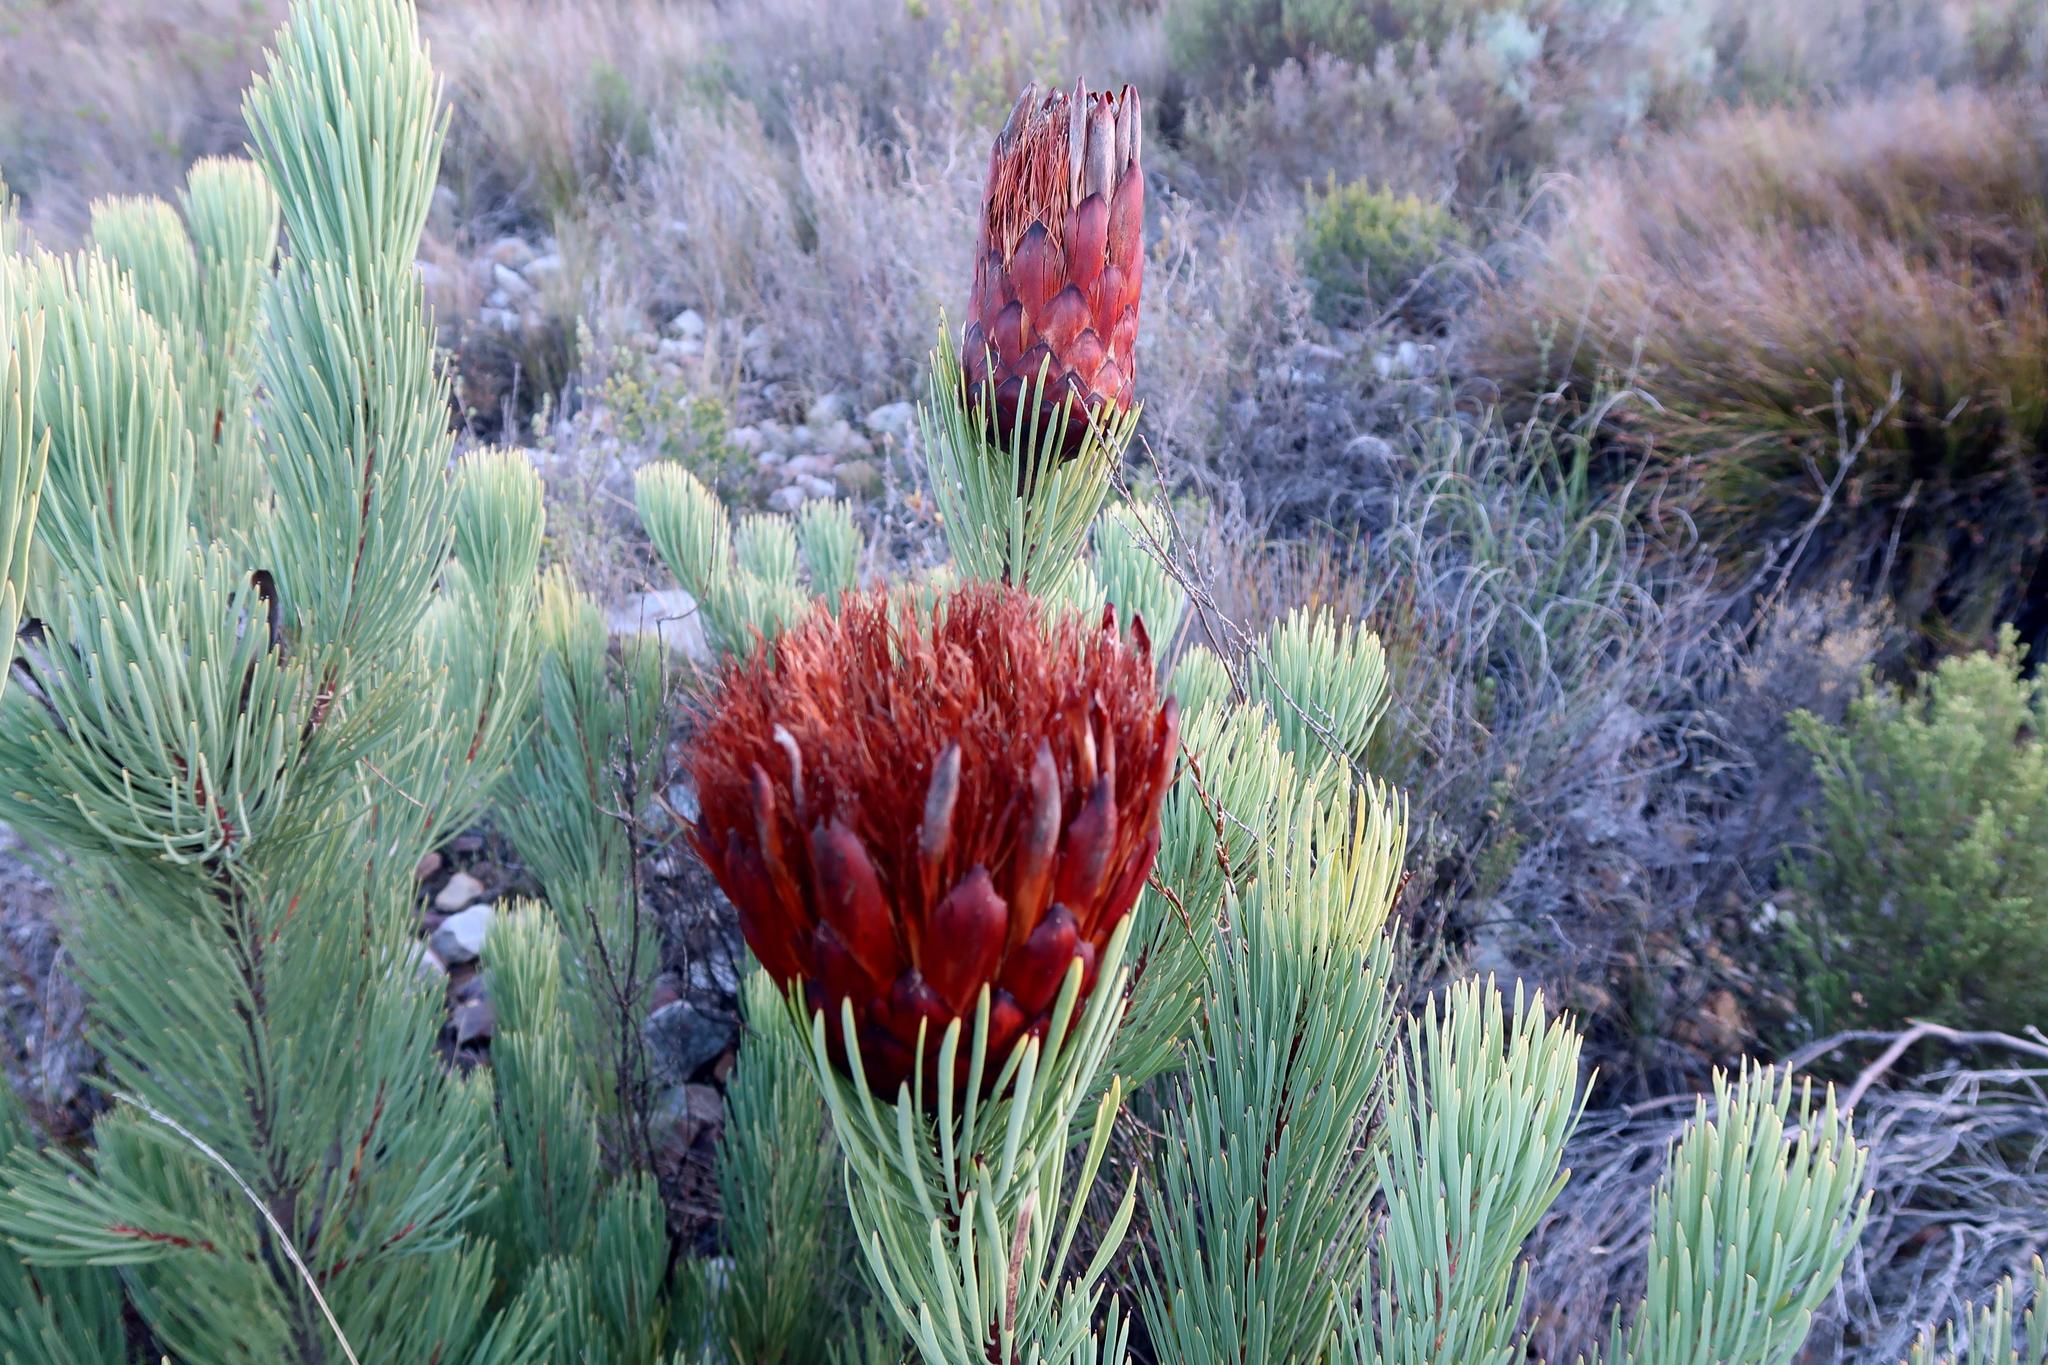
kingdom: Plantae
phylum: Tracheophyta
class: Magnoliopsida
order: Proteales
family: Proteaceae
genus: Protea
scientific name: Protea aristata
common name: Ladismith sugarbush
